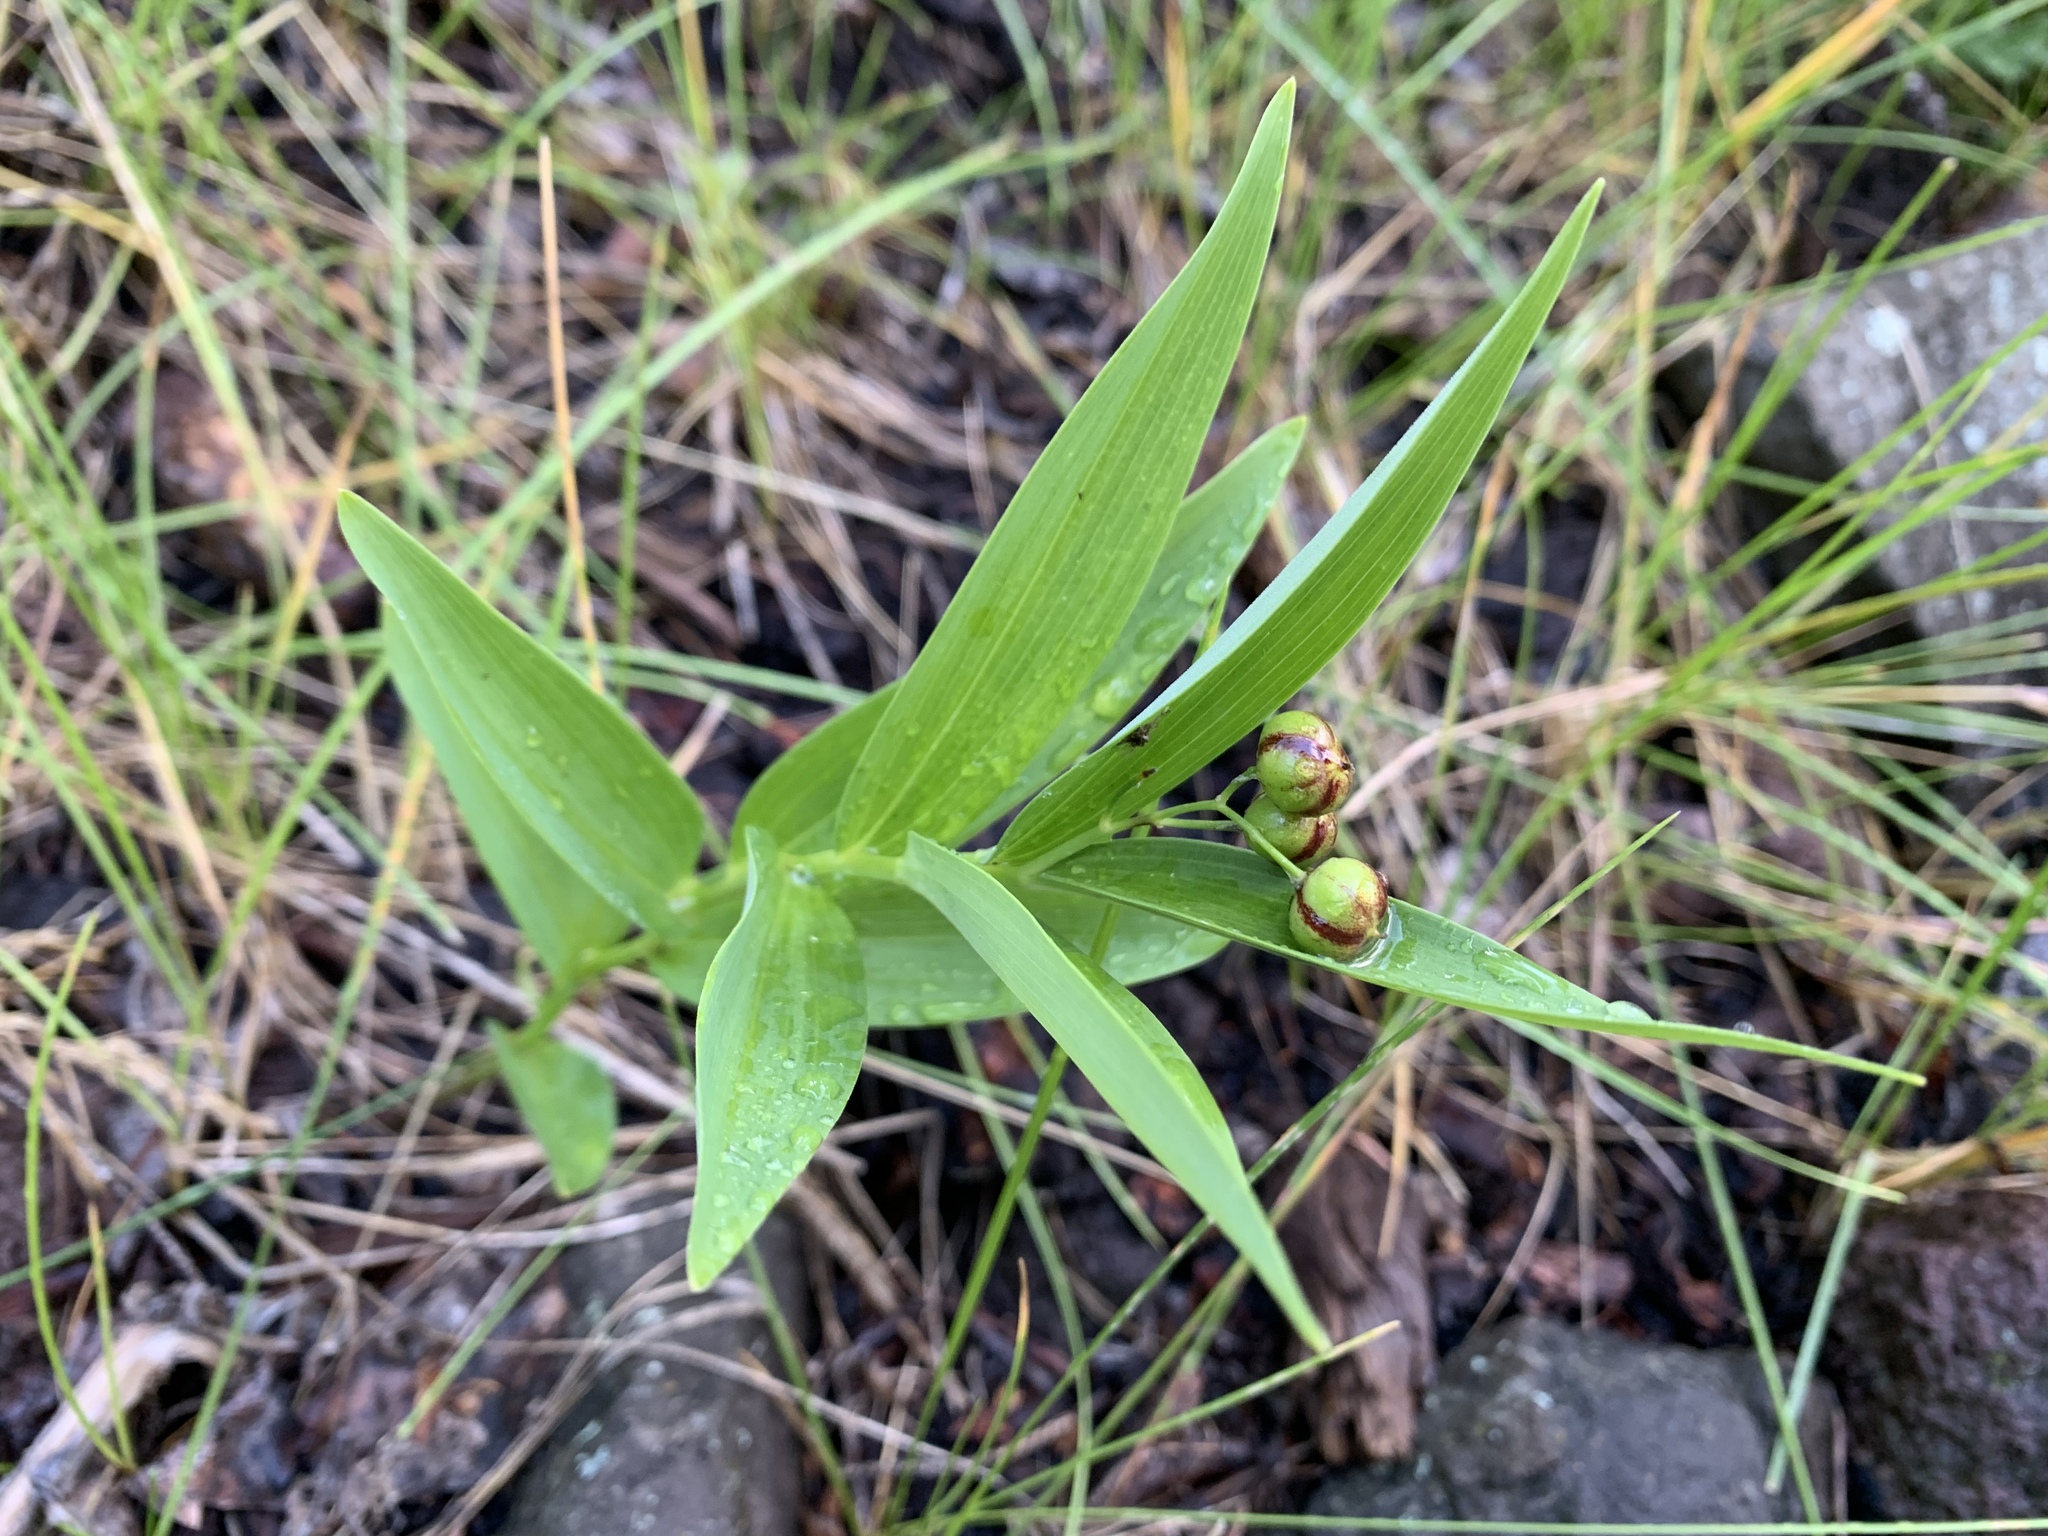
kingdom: Plantae
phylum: Tracheophyta
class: Liliopsida
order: Asparagales
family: Asparagaceae
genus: Maianthemum
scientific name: Maianthemum stellatum
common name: Little false solomon's seal
